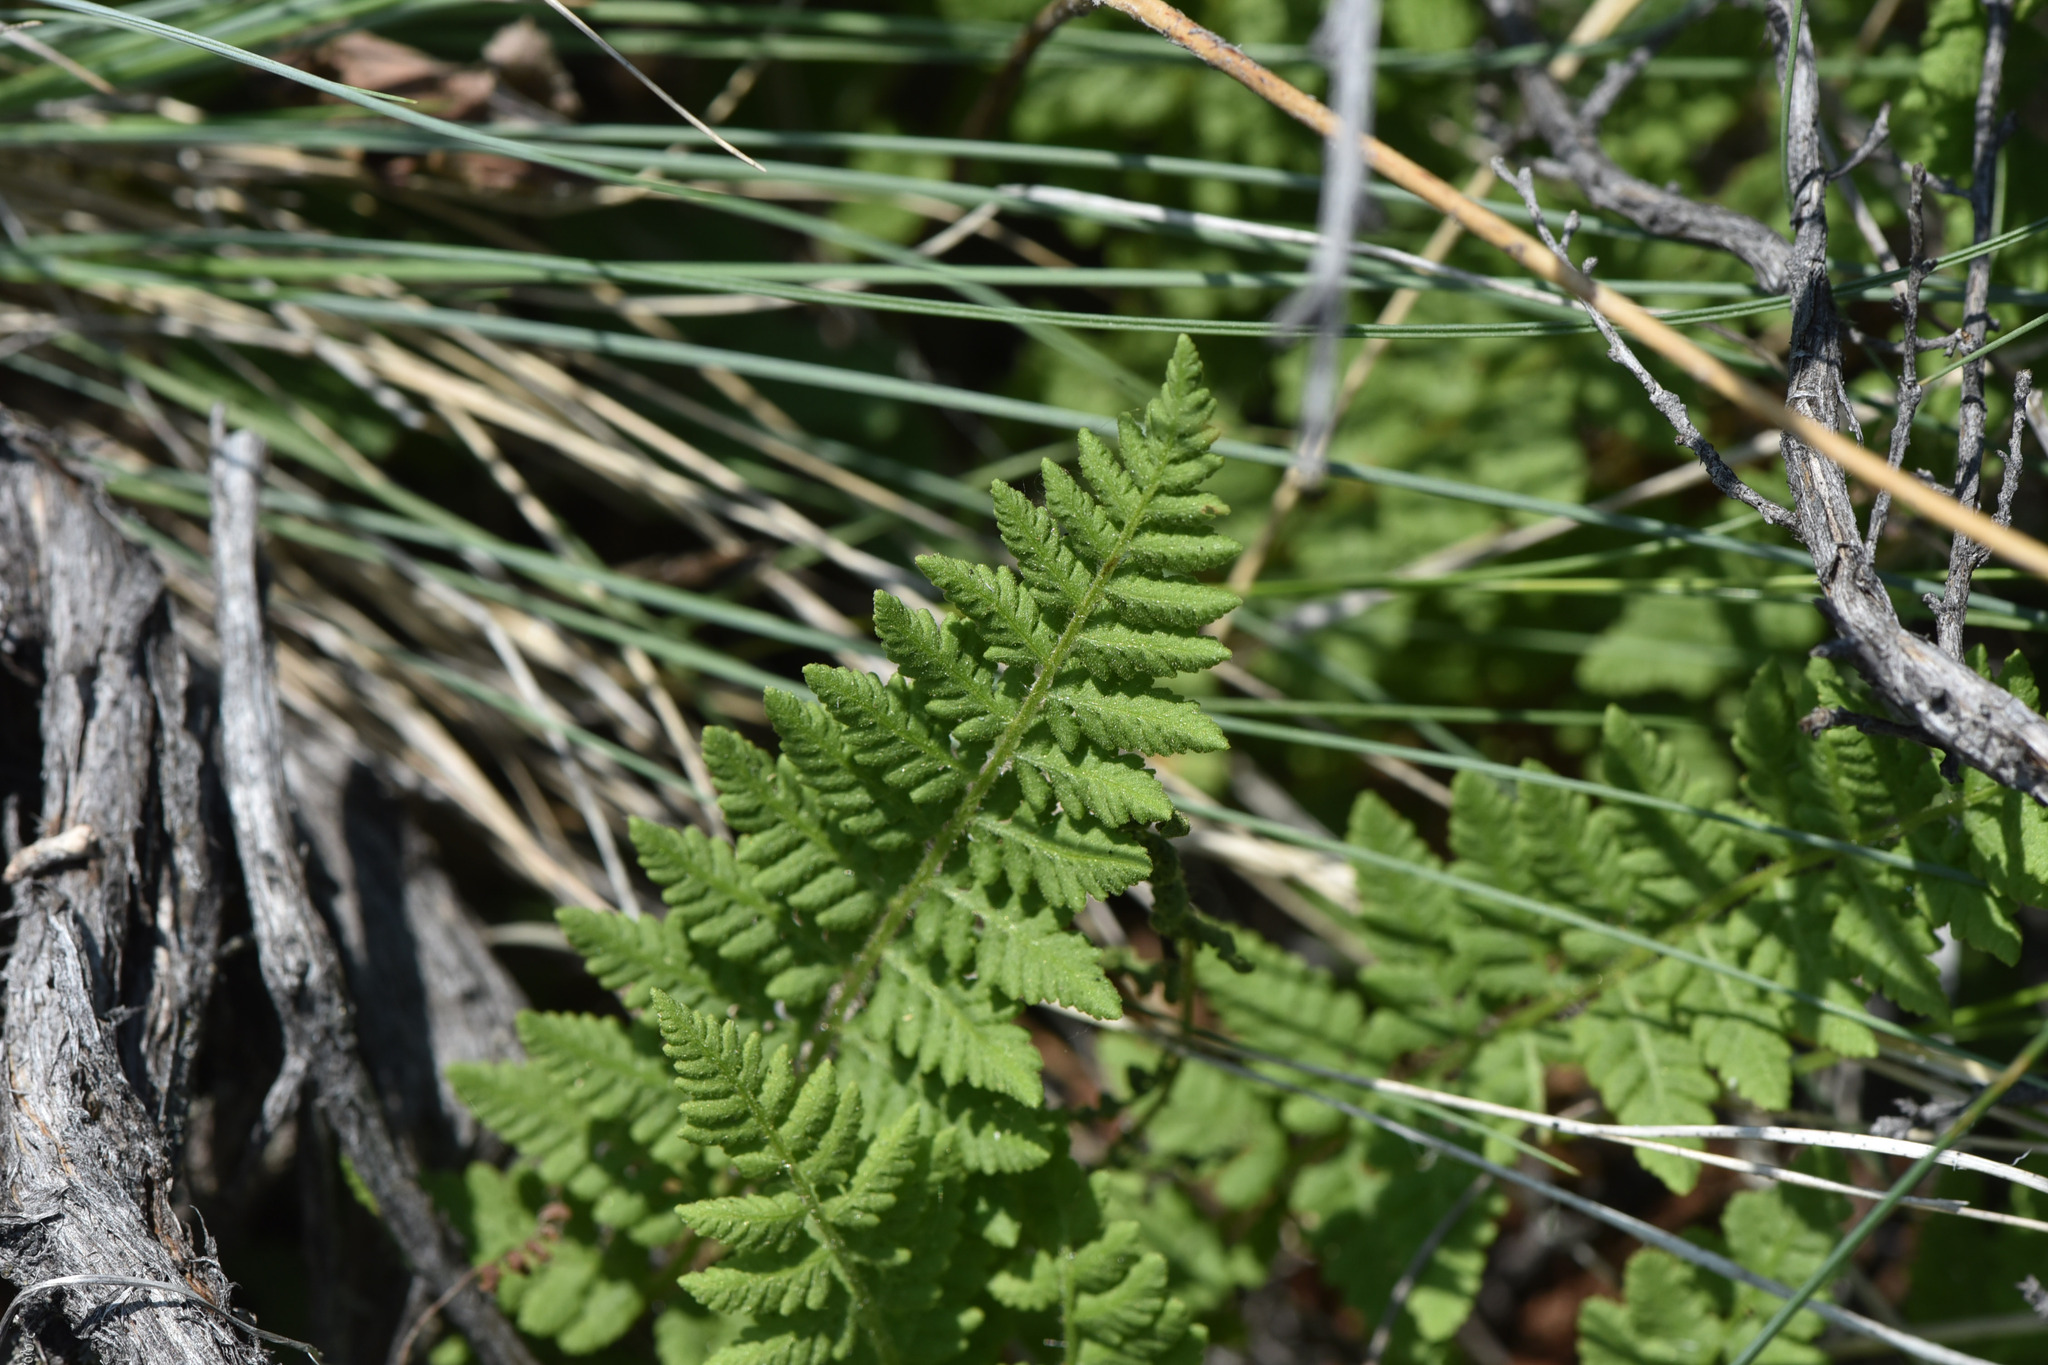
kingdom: Plantae
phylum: Tracheophyta
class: Polypodiopsida
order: Polypodiales
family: Woodsiaceae
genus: Physematium
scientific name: Physematium scopulinum
